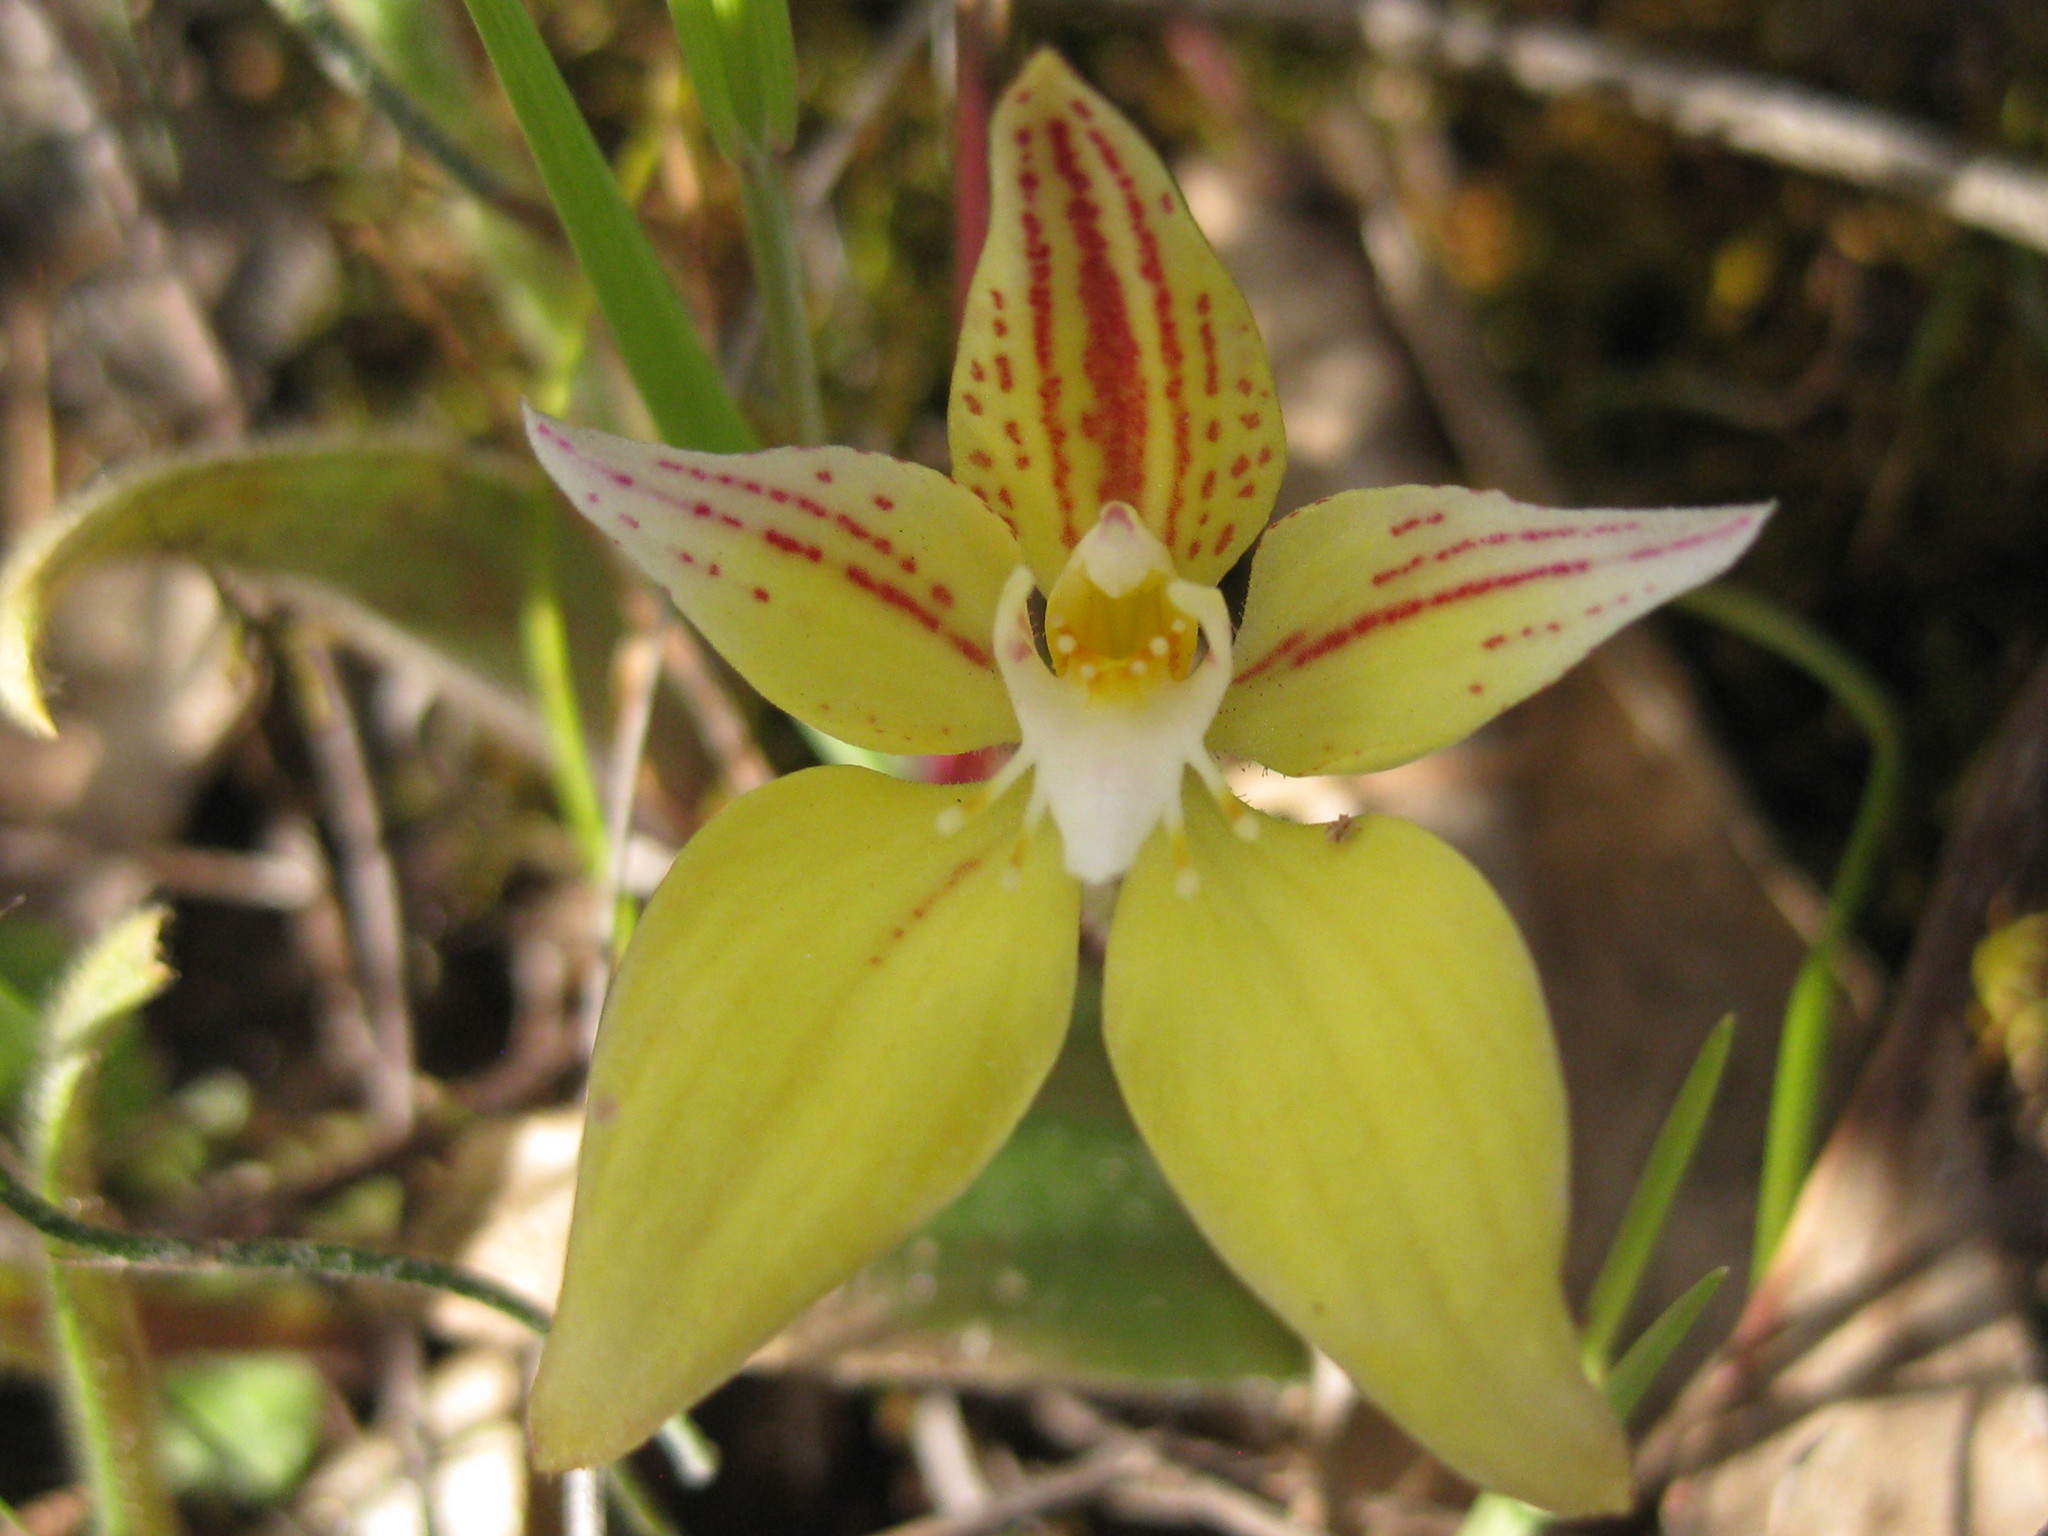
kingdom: Plantae
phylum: Tracheophyta
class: Liliopsida
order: Asparagales
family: Orchidaceae
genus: Caladenia
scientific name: Caladenia flava
